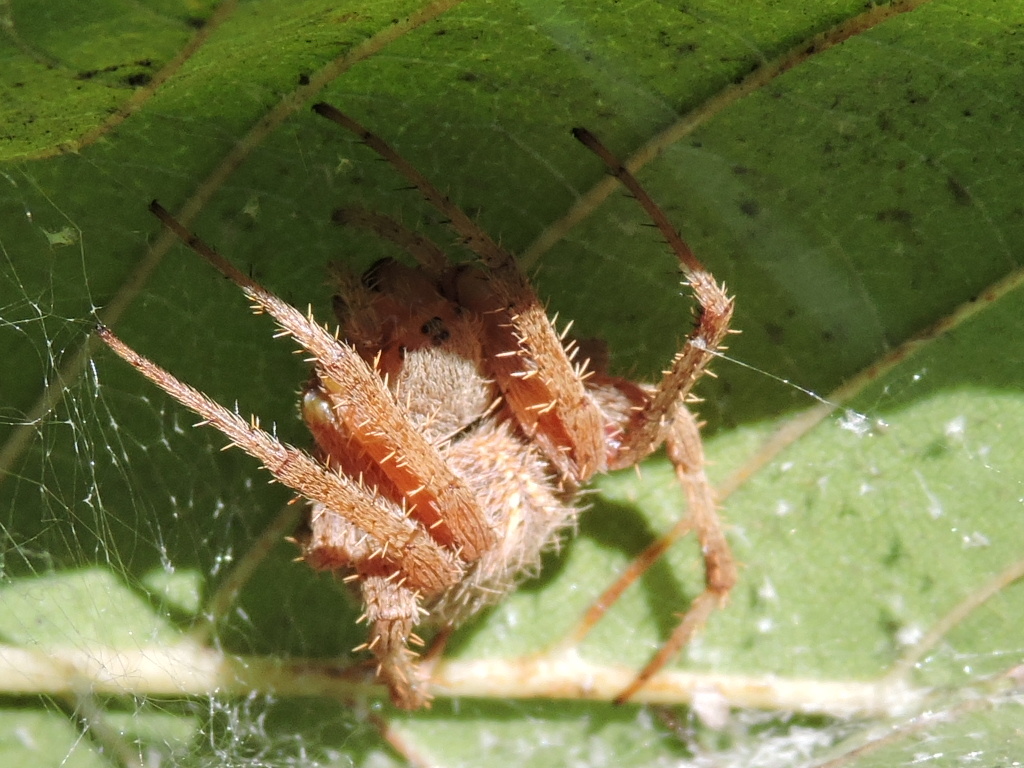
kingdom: Animalia
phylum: Arthropoda
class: Arachnida
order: Araneae
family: Araneidae
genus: Neoscona
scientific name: Neoscona crucifera
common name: Spotted orbweaver
